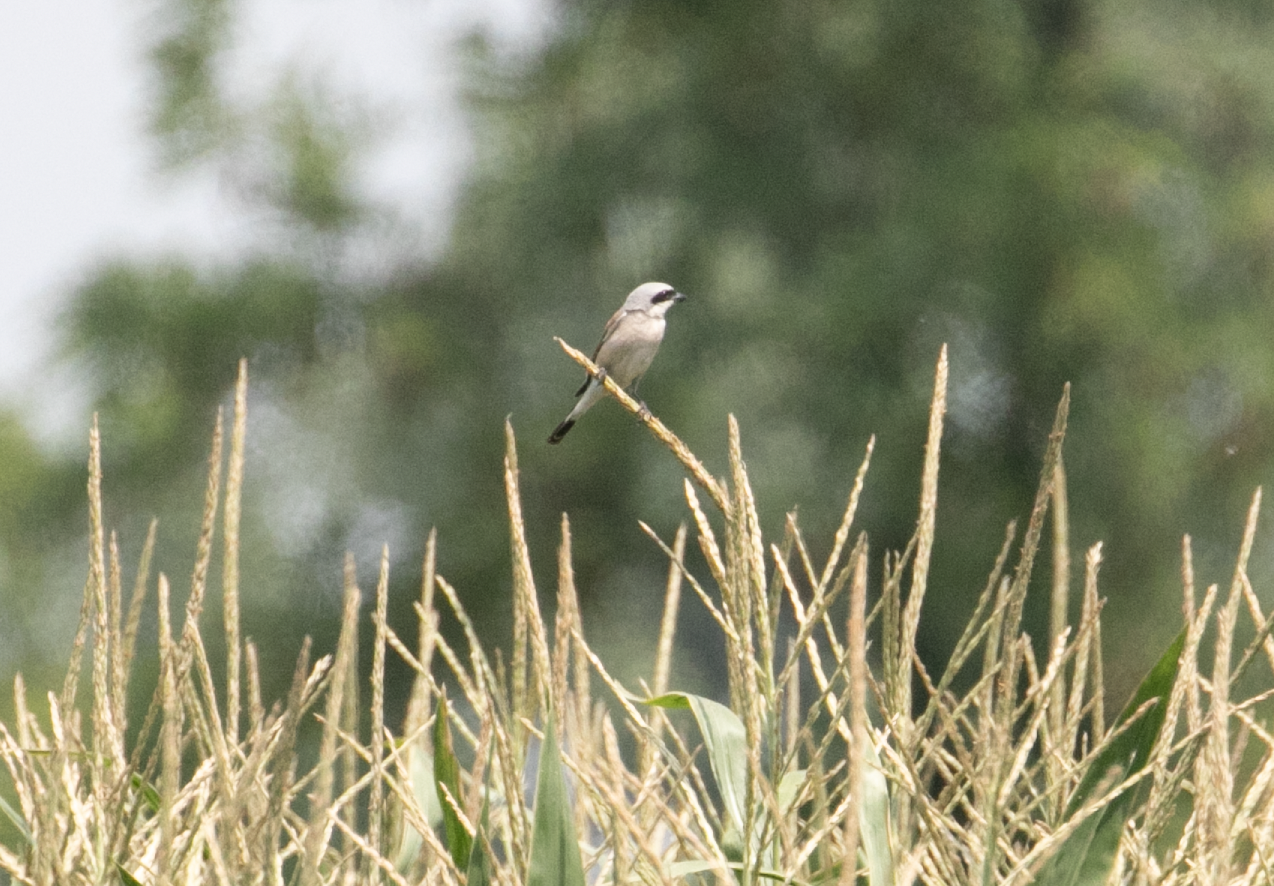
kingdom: Animalia
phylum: Chordata
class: Aves
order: Passeriformes
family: Laniidae
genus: Lanius
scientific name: Lanius collurio
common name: Red-backed shrike
